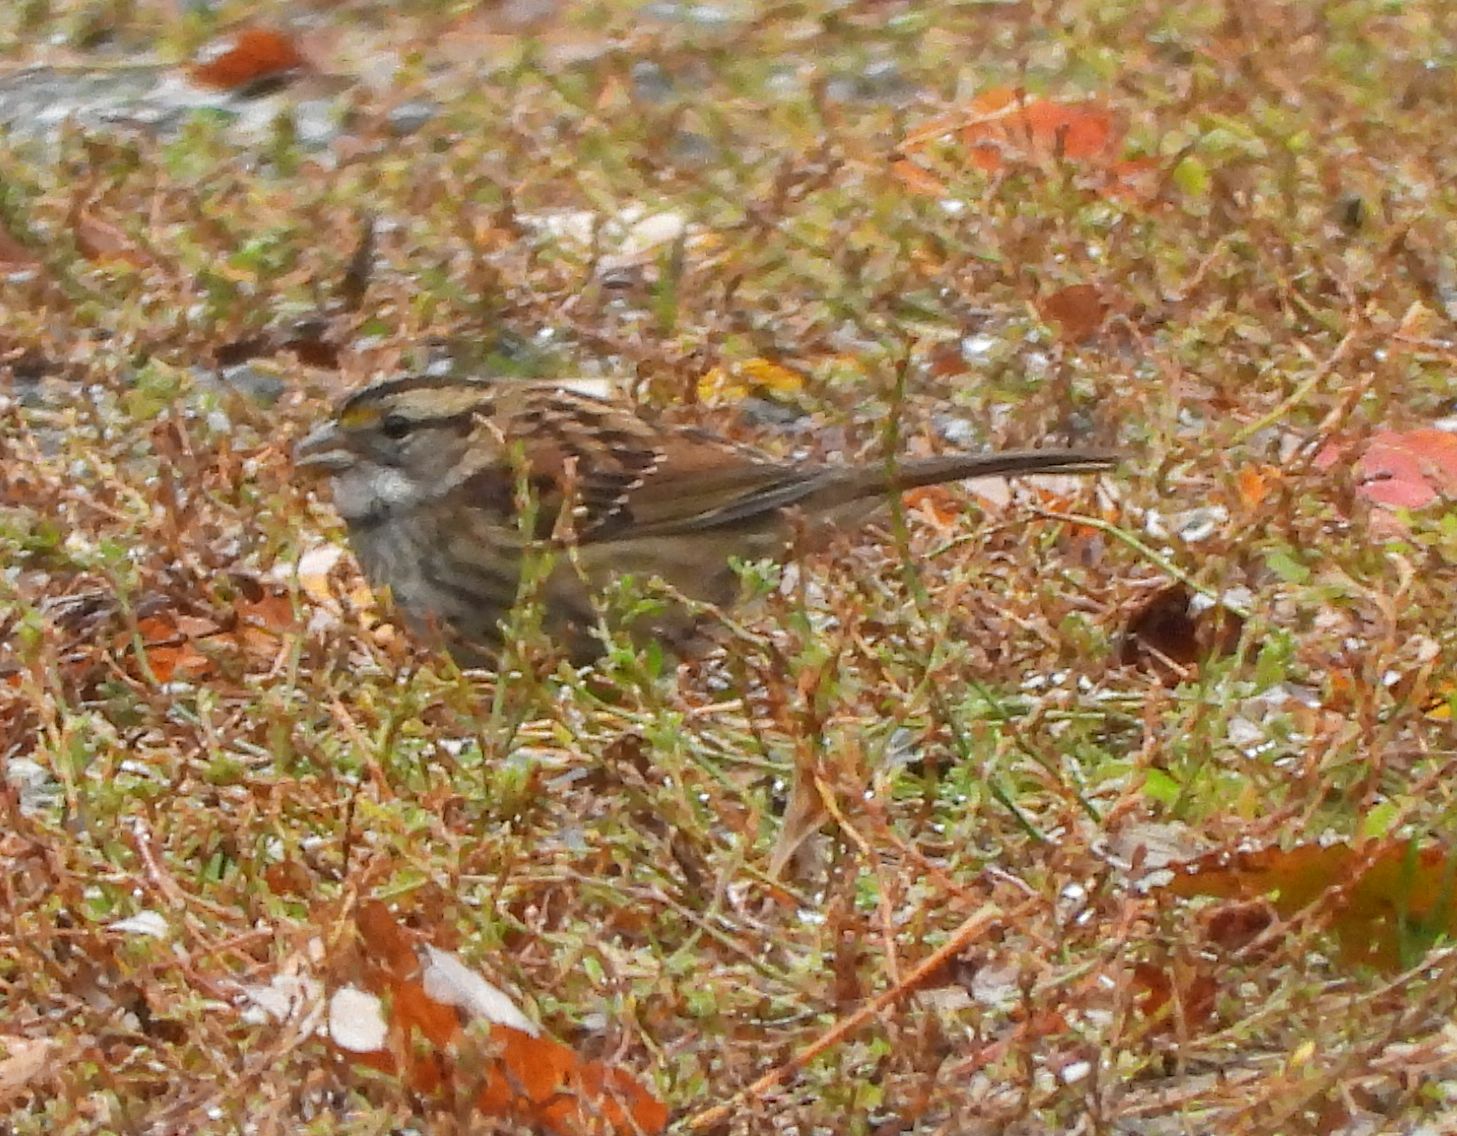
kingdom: Animalia
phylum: Chordata
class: Aves
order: Passeriformes
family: Passerellidae
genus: Zonotrichia
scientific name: Zonotrichia albicollis
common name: White-throated sparrow
